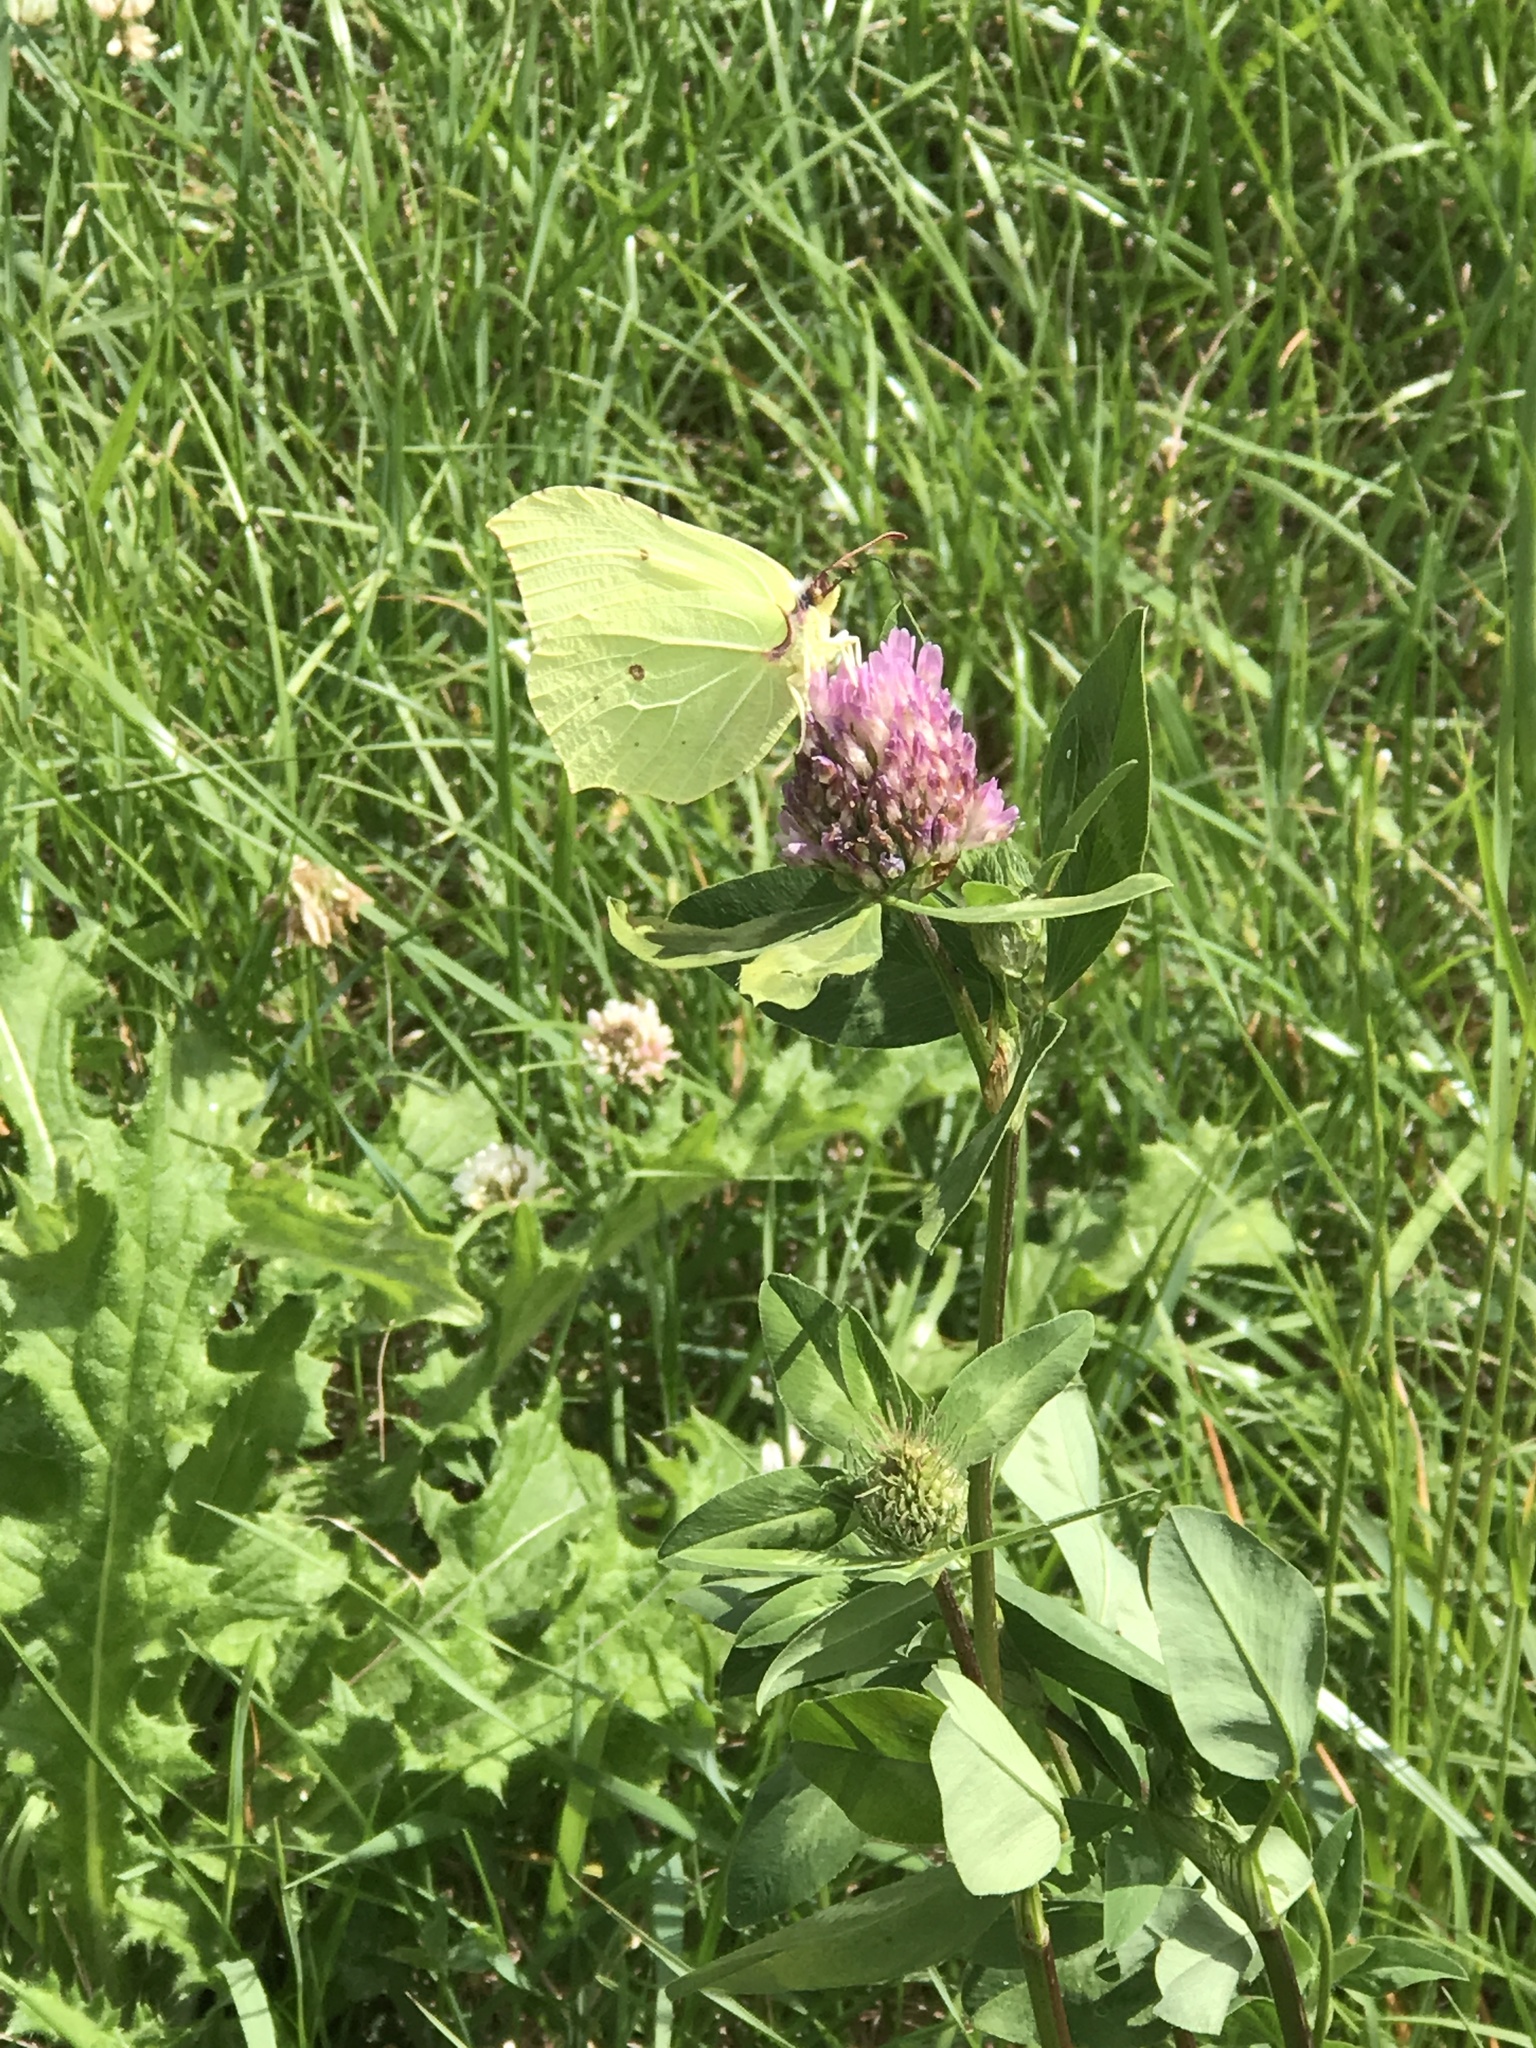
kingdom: Animalia
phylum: Arthropoda
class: Insecta
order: Lepidoptera
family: Pieridae
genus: Gonepteryx
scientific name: Gonepteryx rhamni
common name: Brimstone
